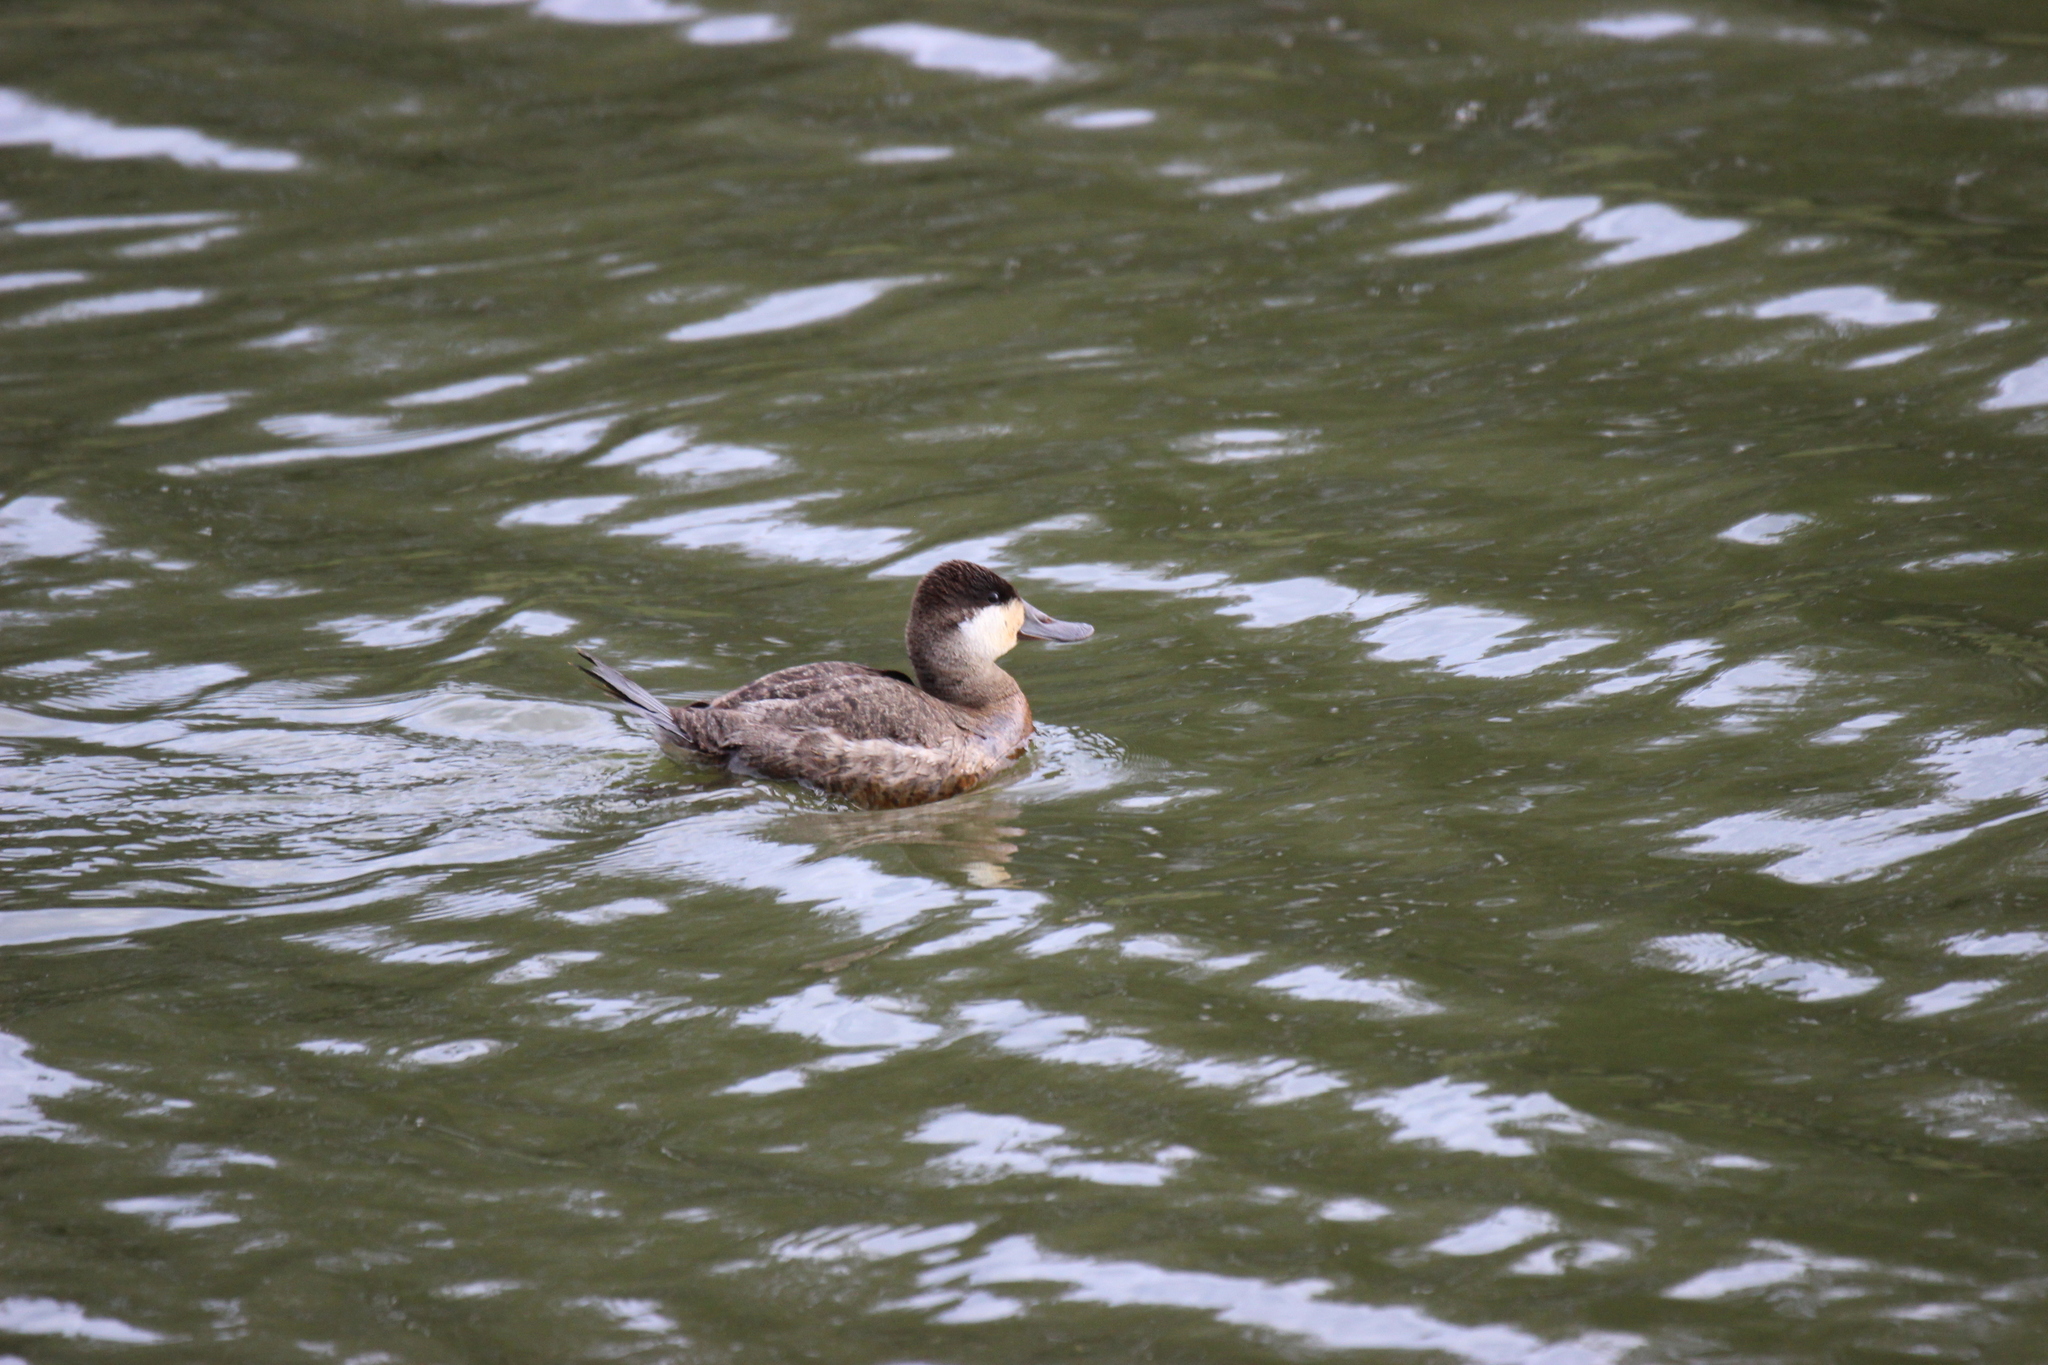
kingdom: Animalia
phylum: Chordata
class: Aves
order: Anseriformes
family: Anatidae
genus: Oxyura
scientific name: Oxyura jamaicensis
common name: Ruddy duck
